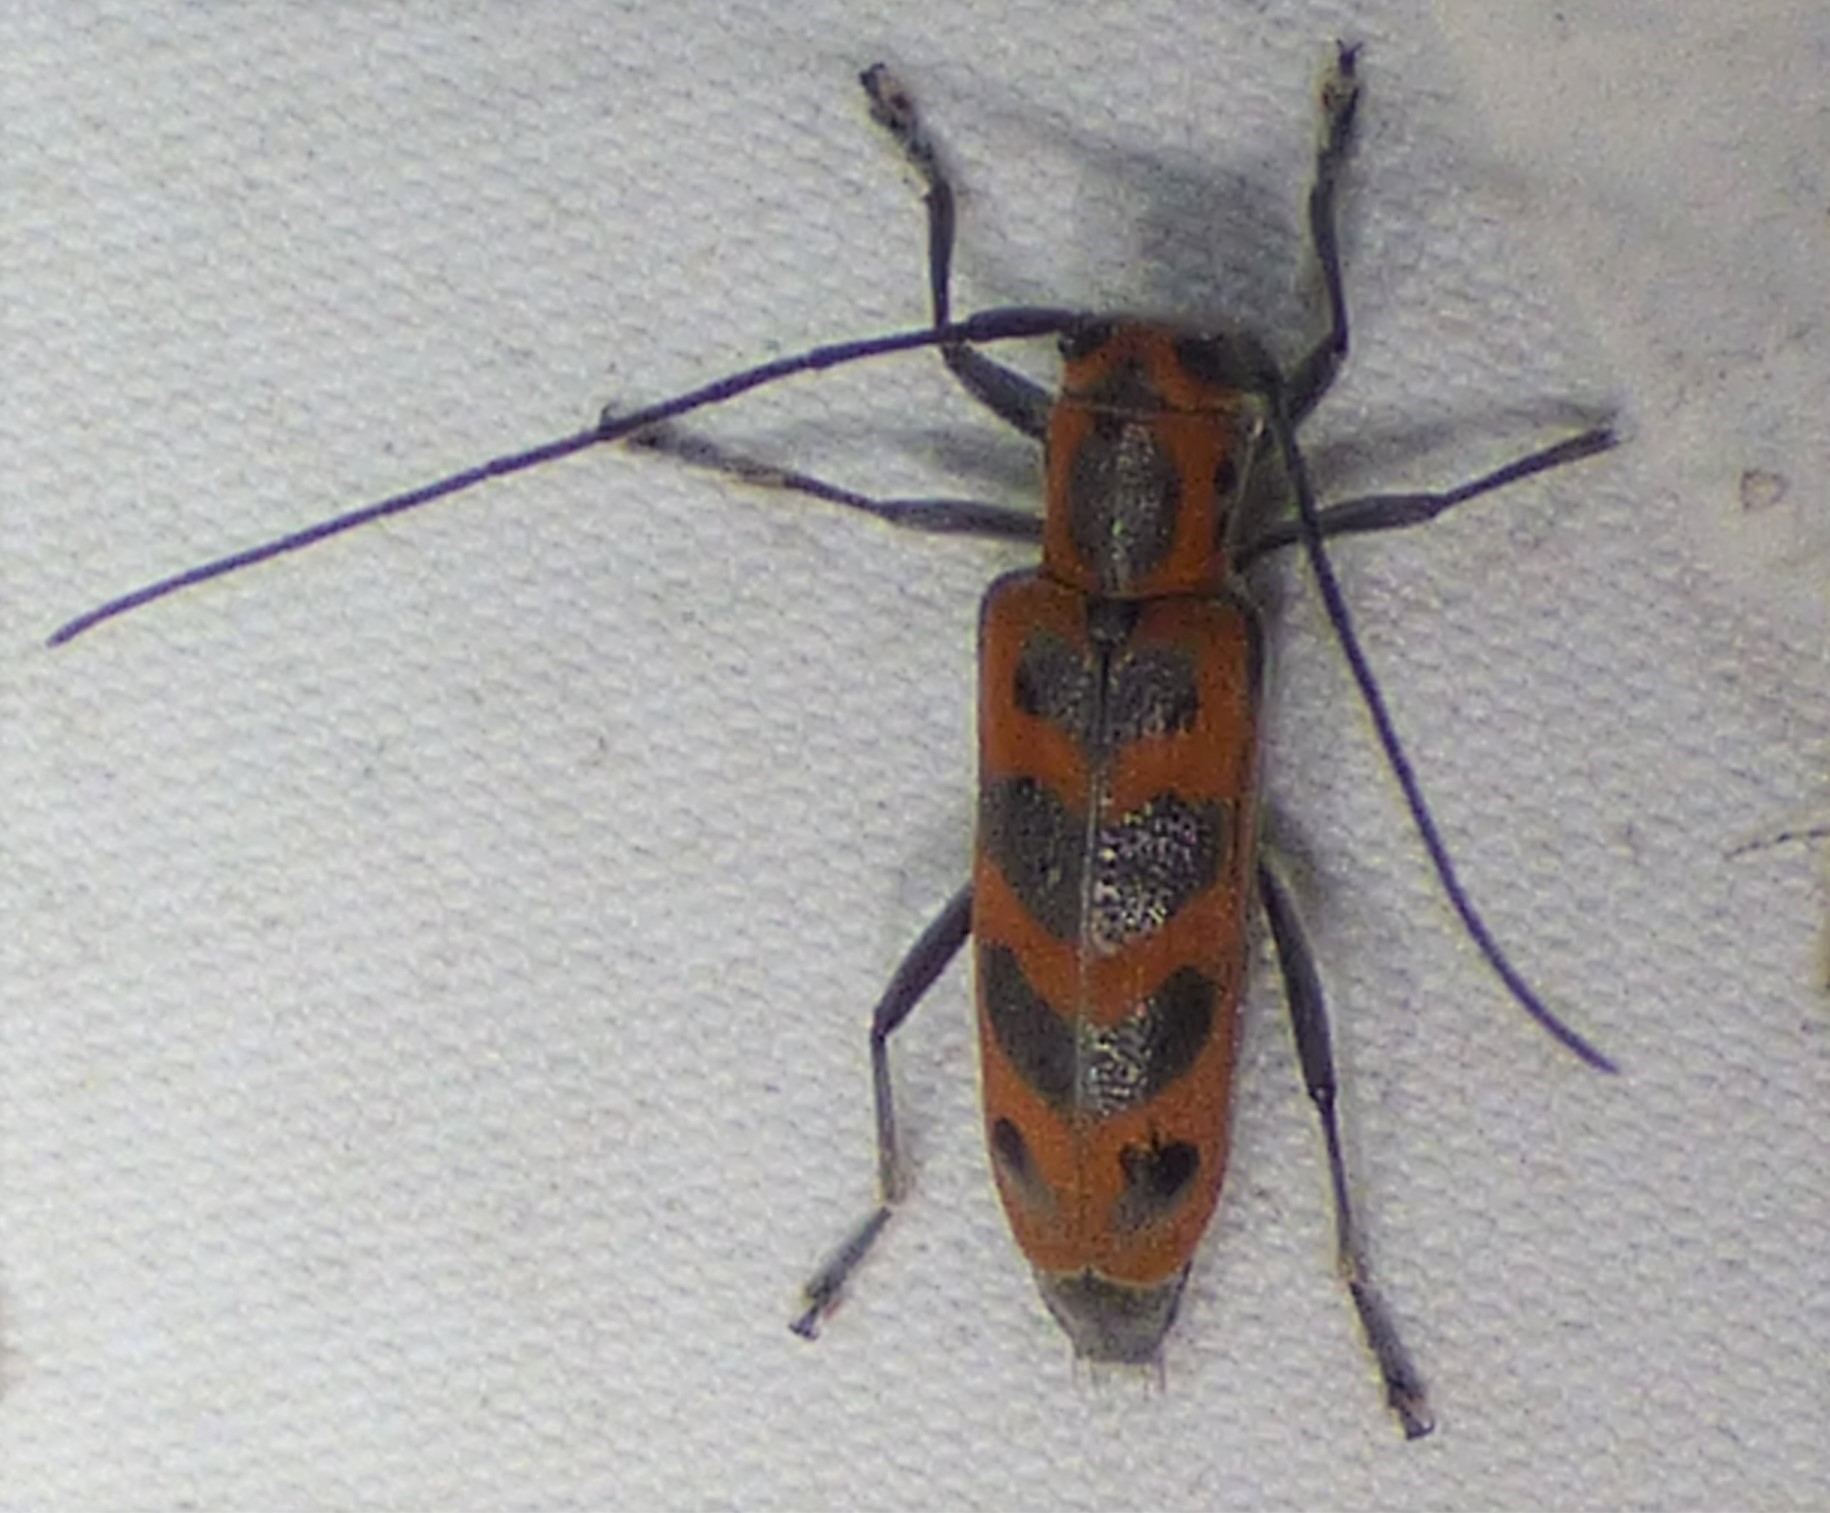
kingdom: Animalia
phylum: Arthropoda
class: Insecta
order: Coleoptera
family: Cerambycidae
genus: Saperda
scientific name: Saperda tridentata
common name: Elm borer
